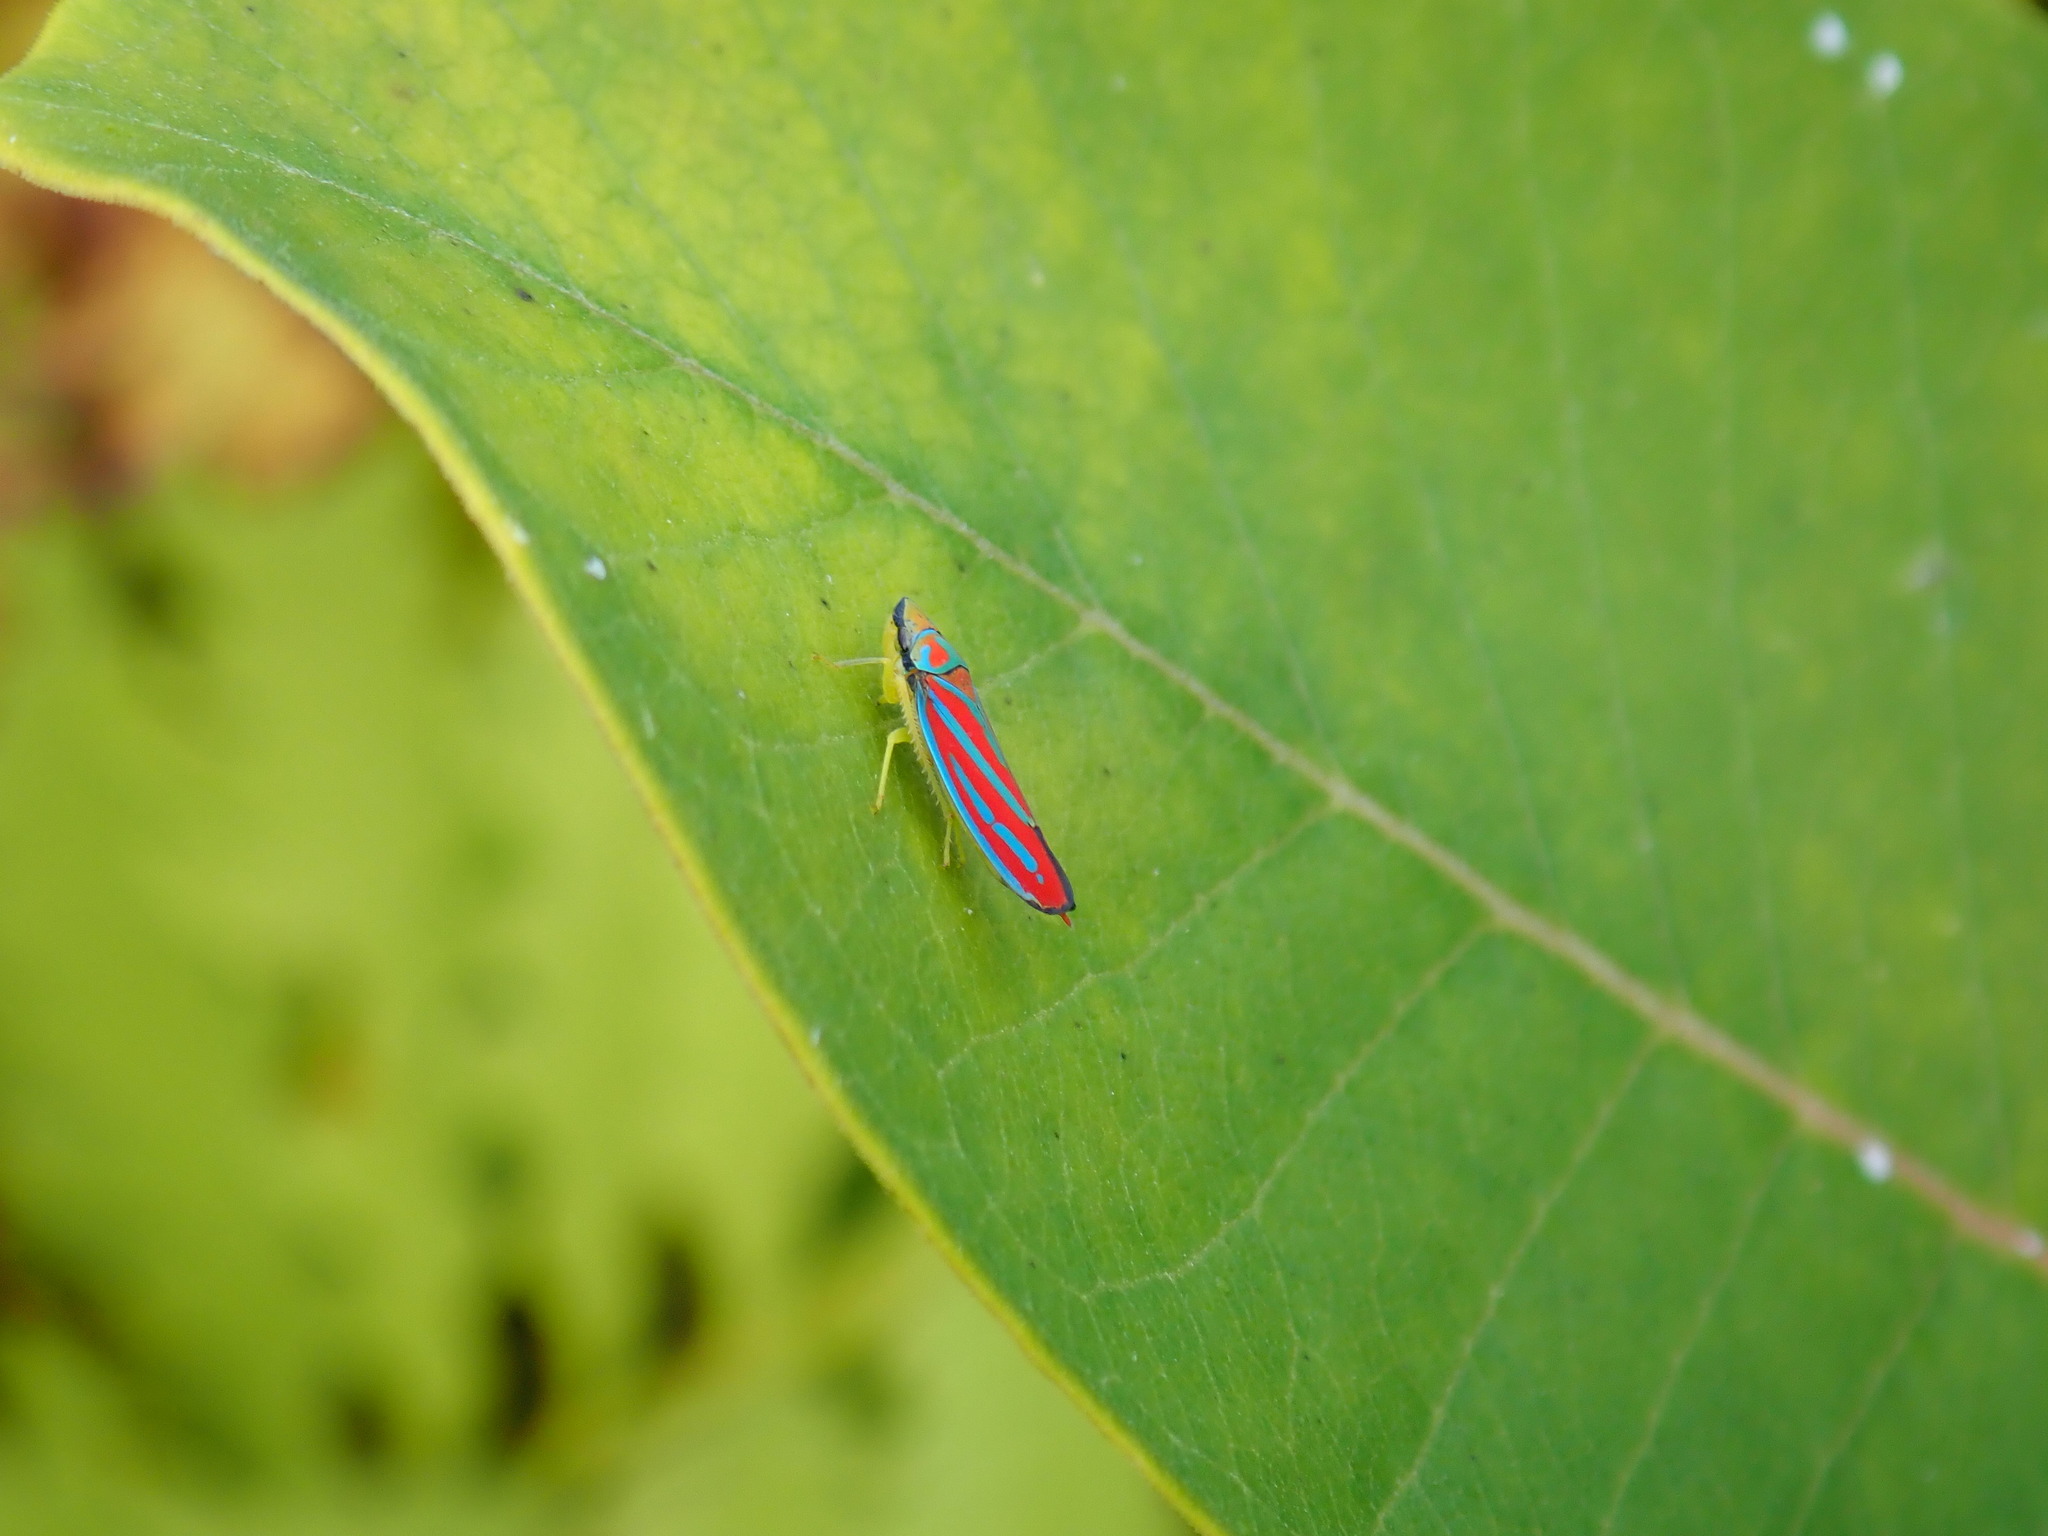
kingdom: Animalia
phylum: Arthropoda
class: Insecta
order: Hemiptera
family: Cicadellidae
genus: Graphocephala
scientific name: Graphocephala coccinea
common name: Candy-striped leafhopper
